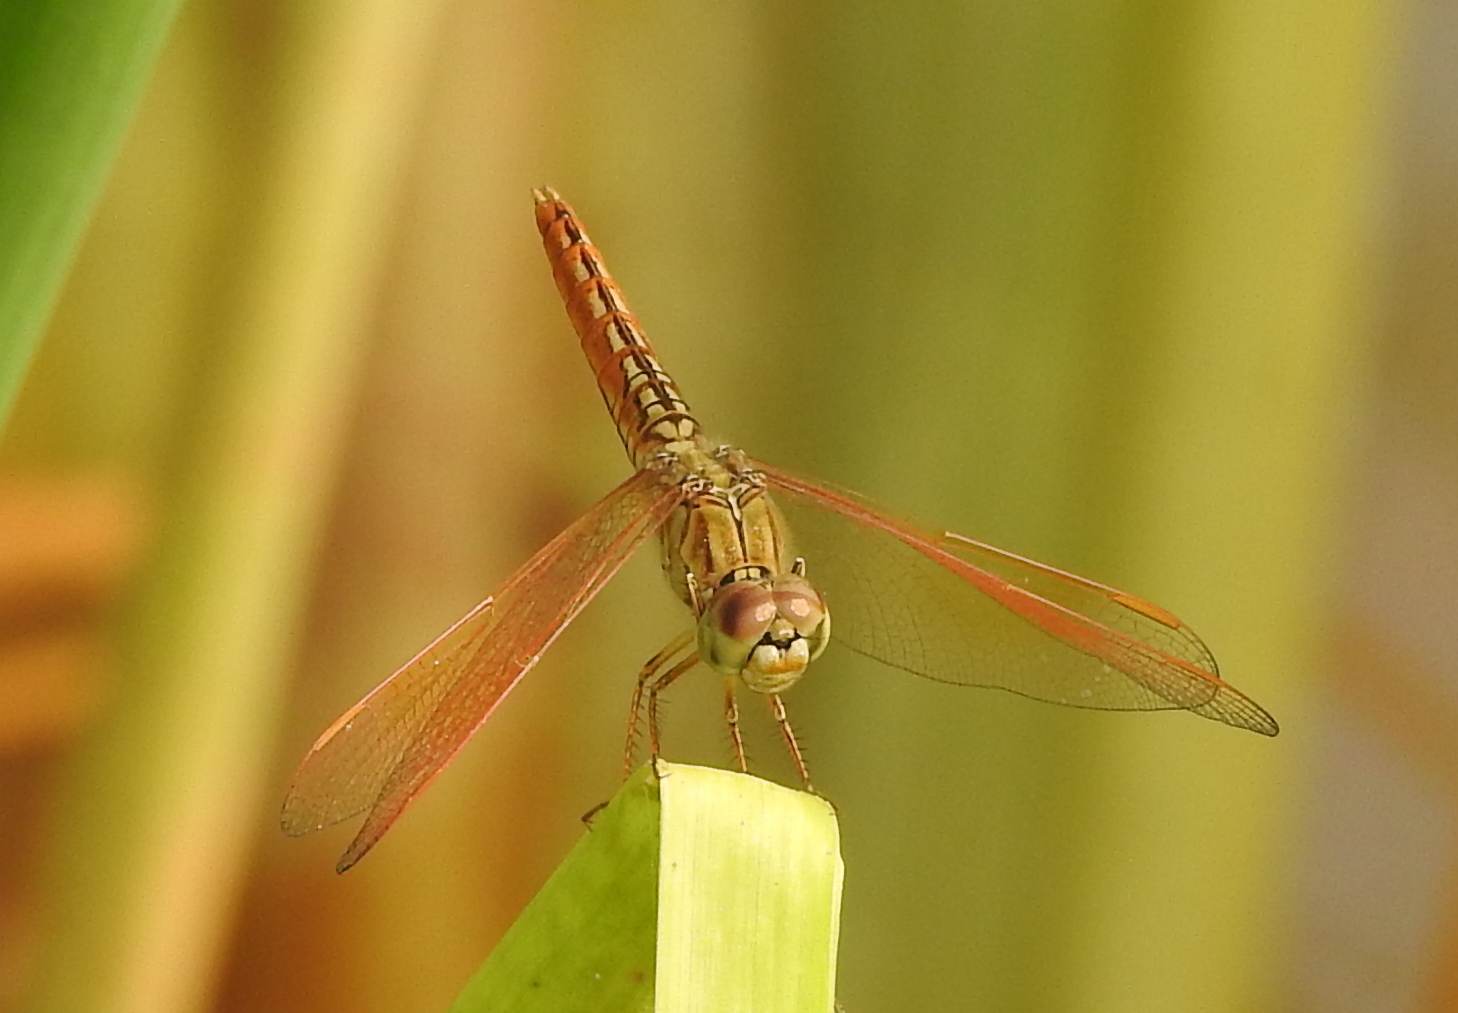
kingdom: Animalia
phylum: Arthropoda
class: Insecta
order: Odonata
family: Libellulidae
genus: Brachythemis
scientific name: Brachythemis contaminata
